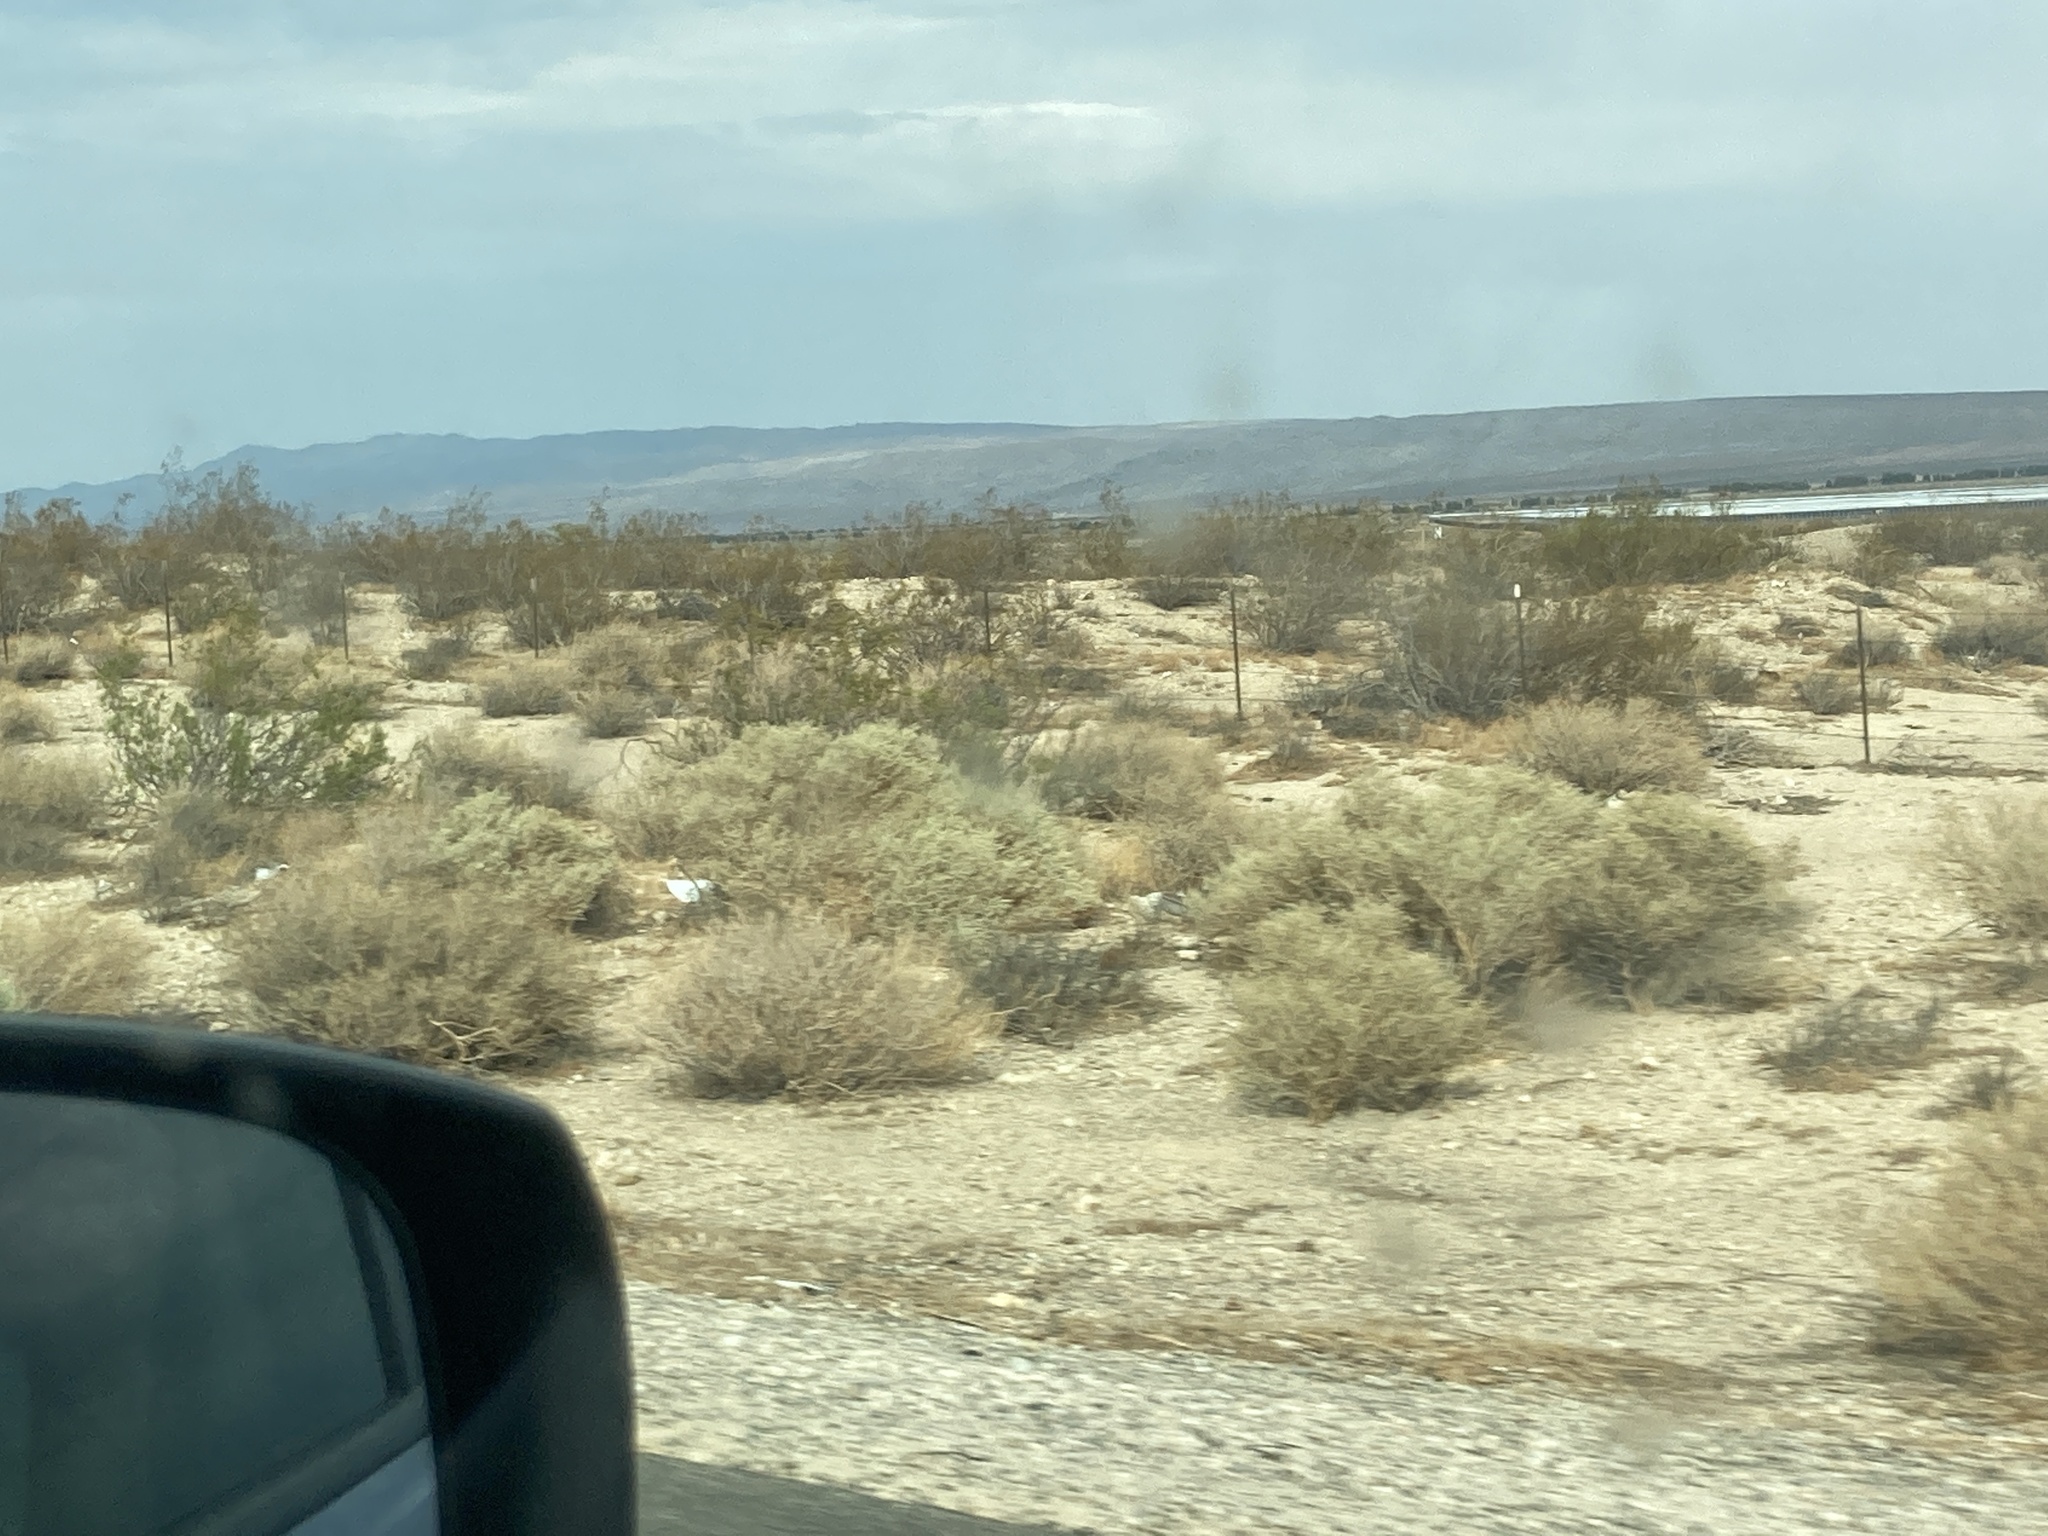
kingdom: Plantae
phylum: Tracheophyta
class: Magnoliopsida
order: Zygophyllales
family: Zygophyllaceae
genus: Larrea
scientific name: Larrea tridentata
